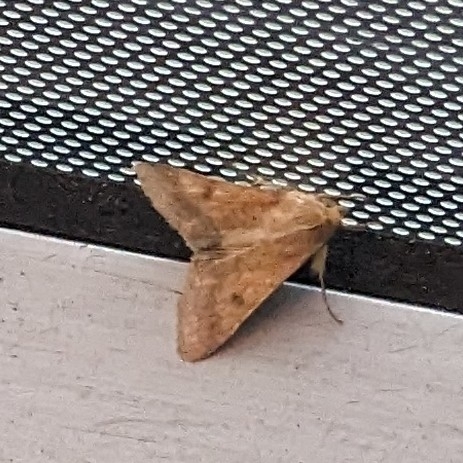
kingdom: Animalia
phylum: Arthropoda
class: Insecta
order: Lepidoptera
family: Noctuidae
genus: Helicoverpa
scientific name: Helicoverpa armigera
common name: Cotton bollworm
